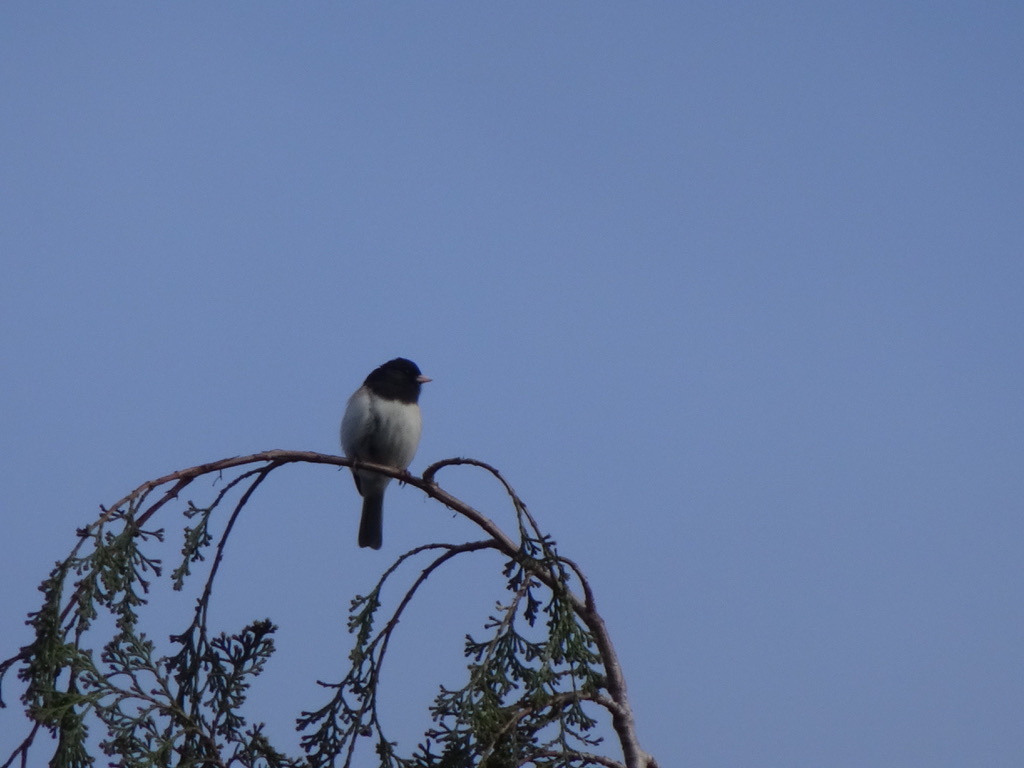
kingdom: Animalia
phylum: Chordata
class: Aves
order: Passeriformes
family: Passerellidae
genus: Junco
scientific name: Junco hyemalis
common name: Dark-eyed junco
